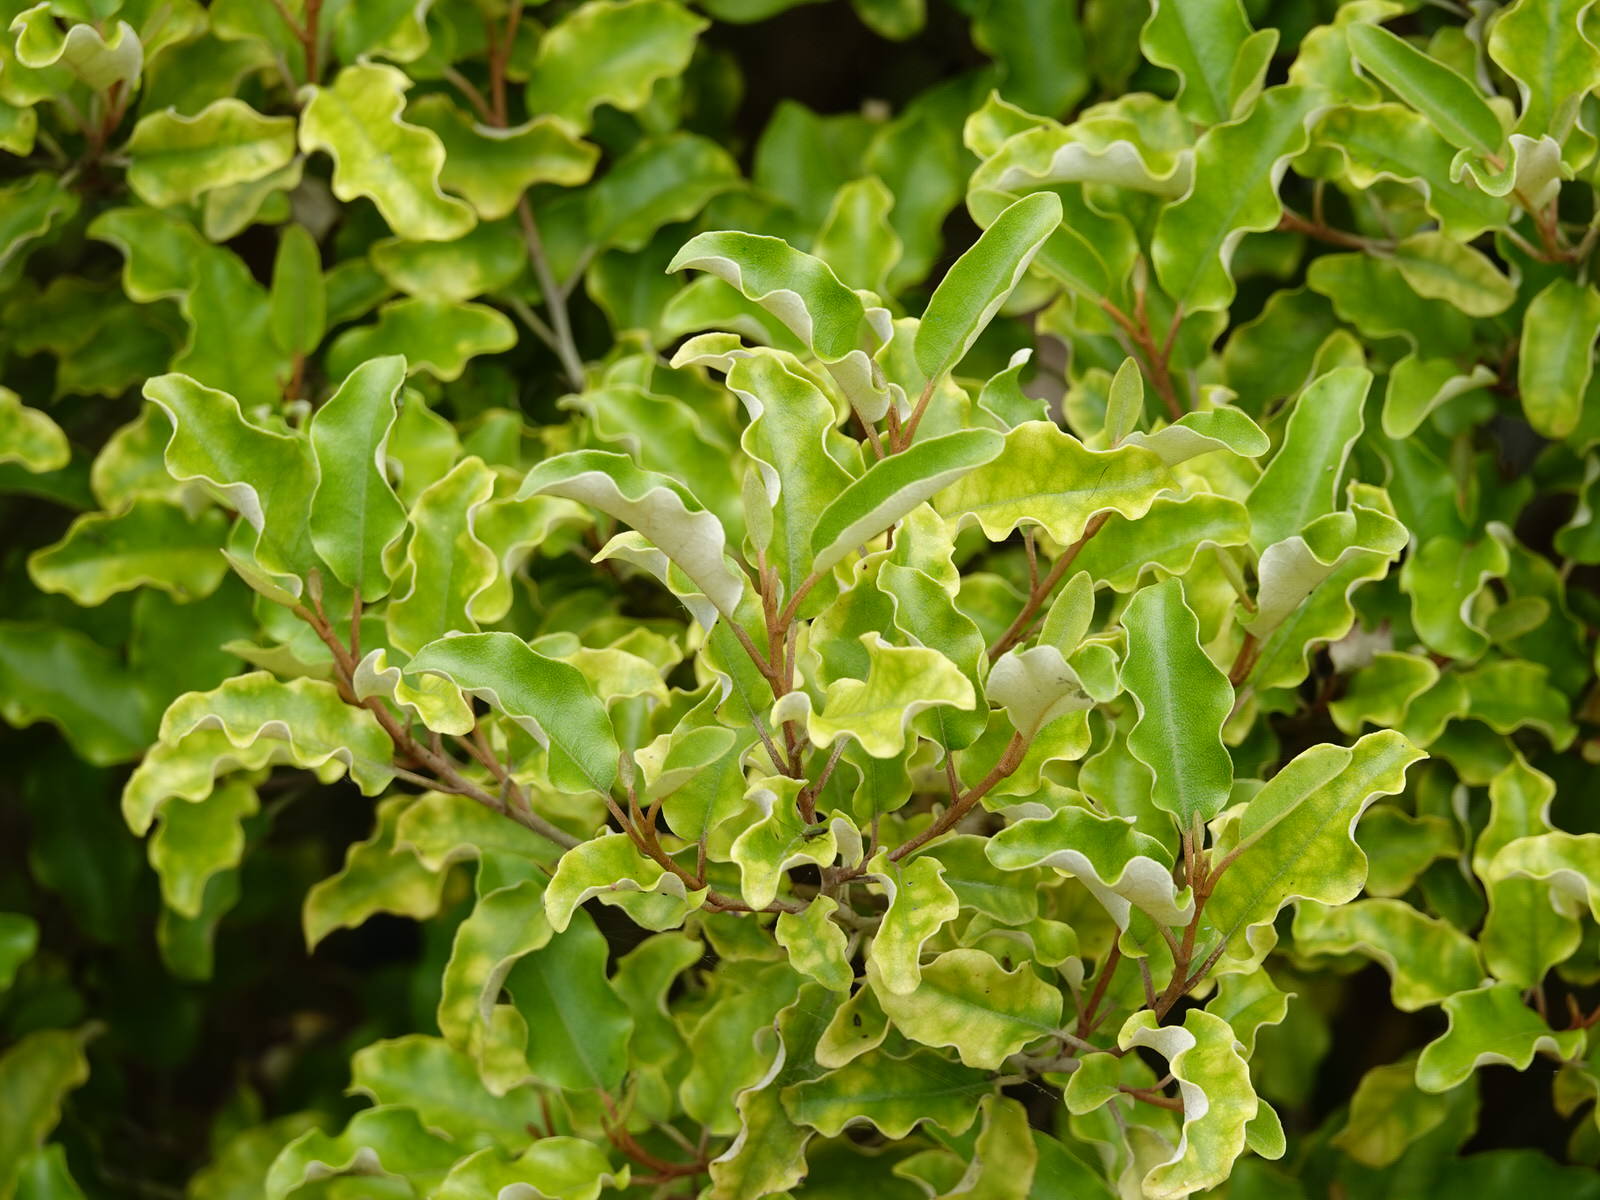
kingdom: Plantae
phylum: Tracheophyta
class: Magnoliopsida
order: Asterales
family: Asteraceae
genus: Olearia
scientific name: Olearia paniculata
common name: Akiraho
